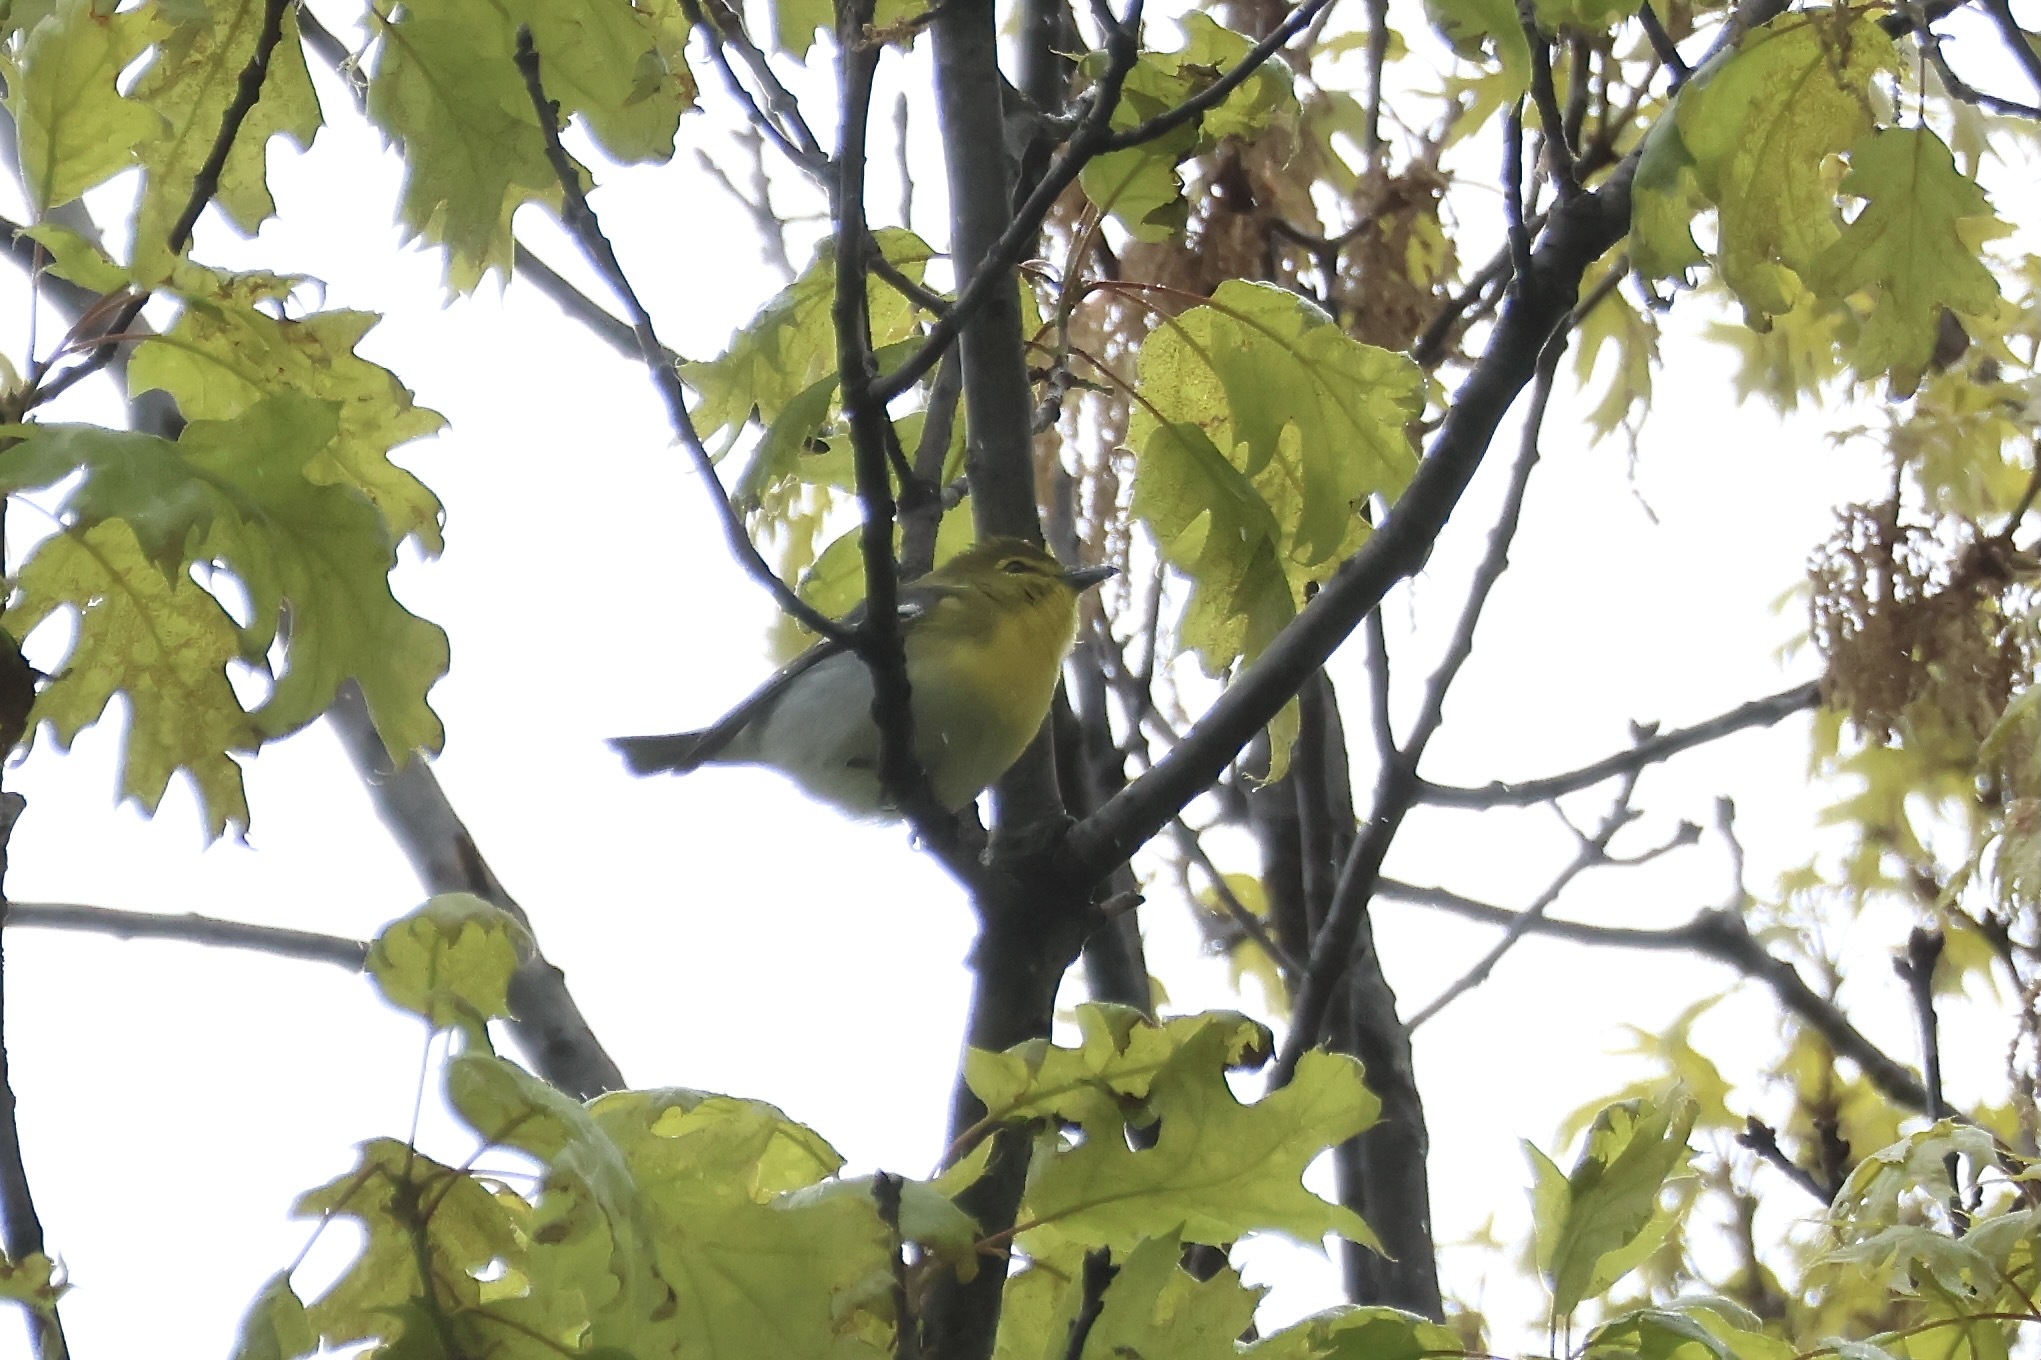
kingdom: Animalia
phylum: Chordata
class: Aves
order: Passeriformes
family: Vireonidae
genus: Vireo
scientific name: Vireo flavifrons
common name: Yellow-throated vireo
